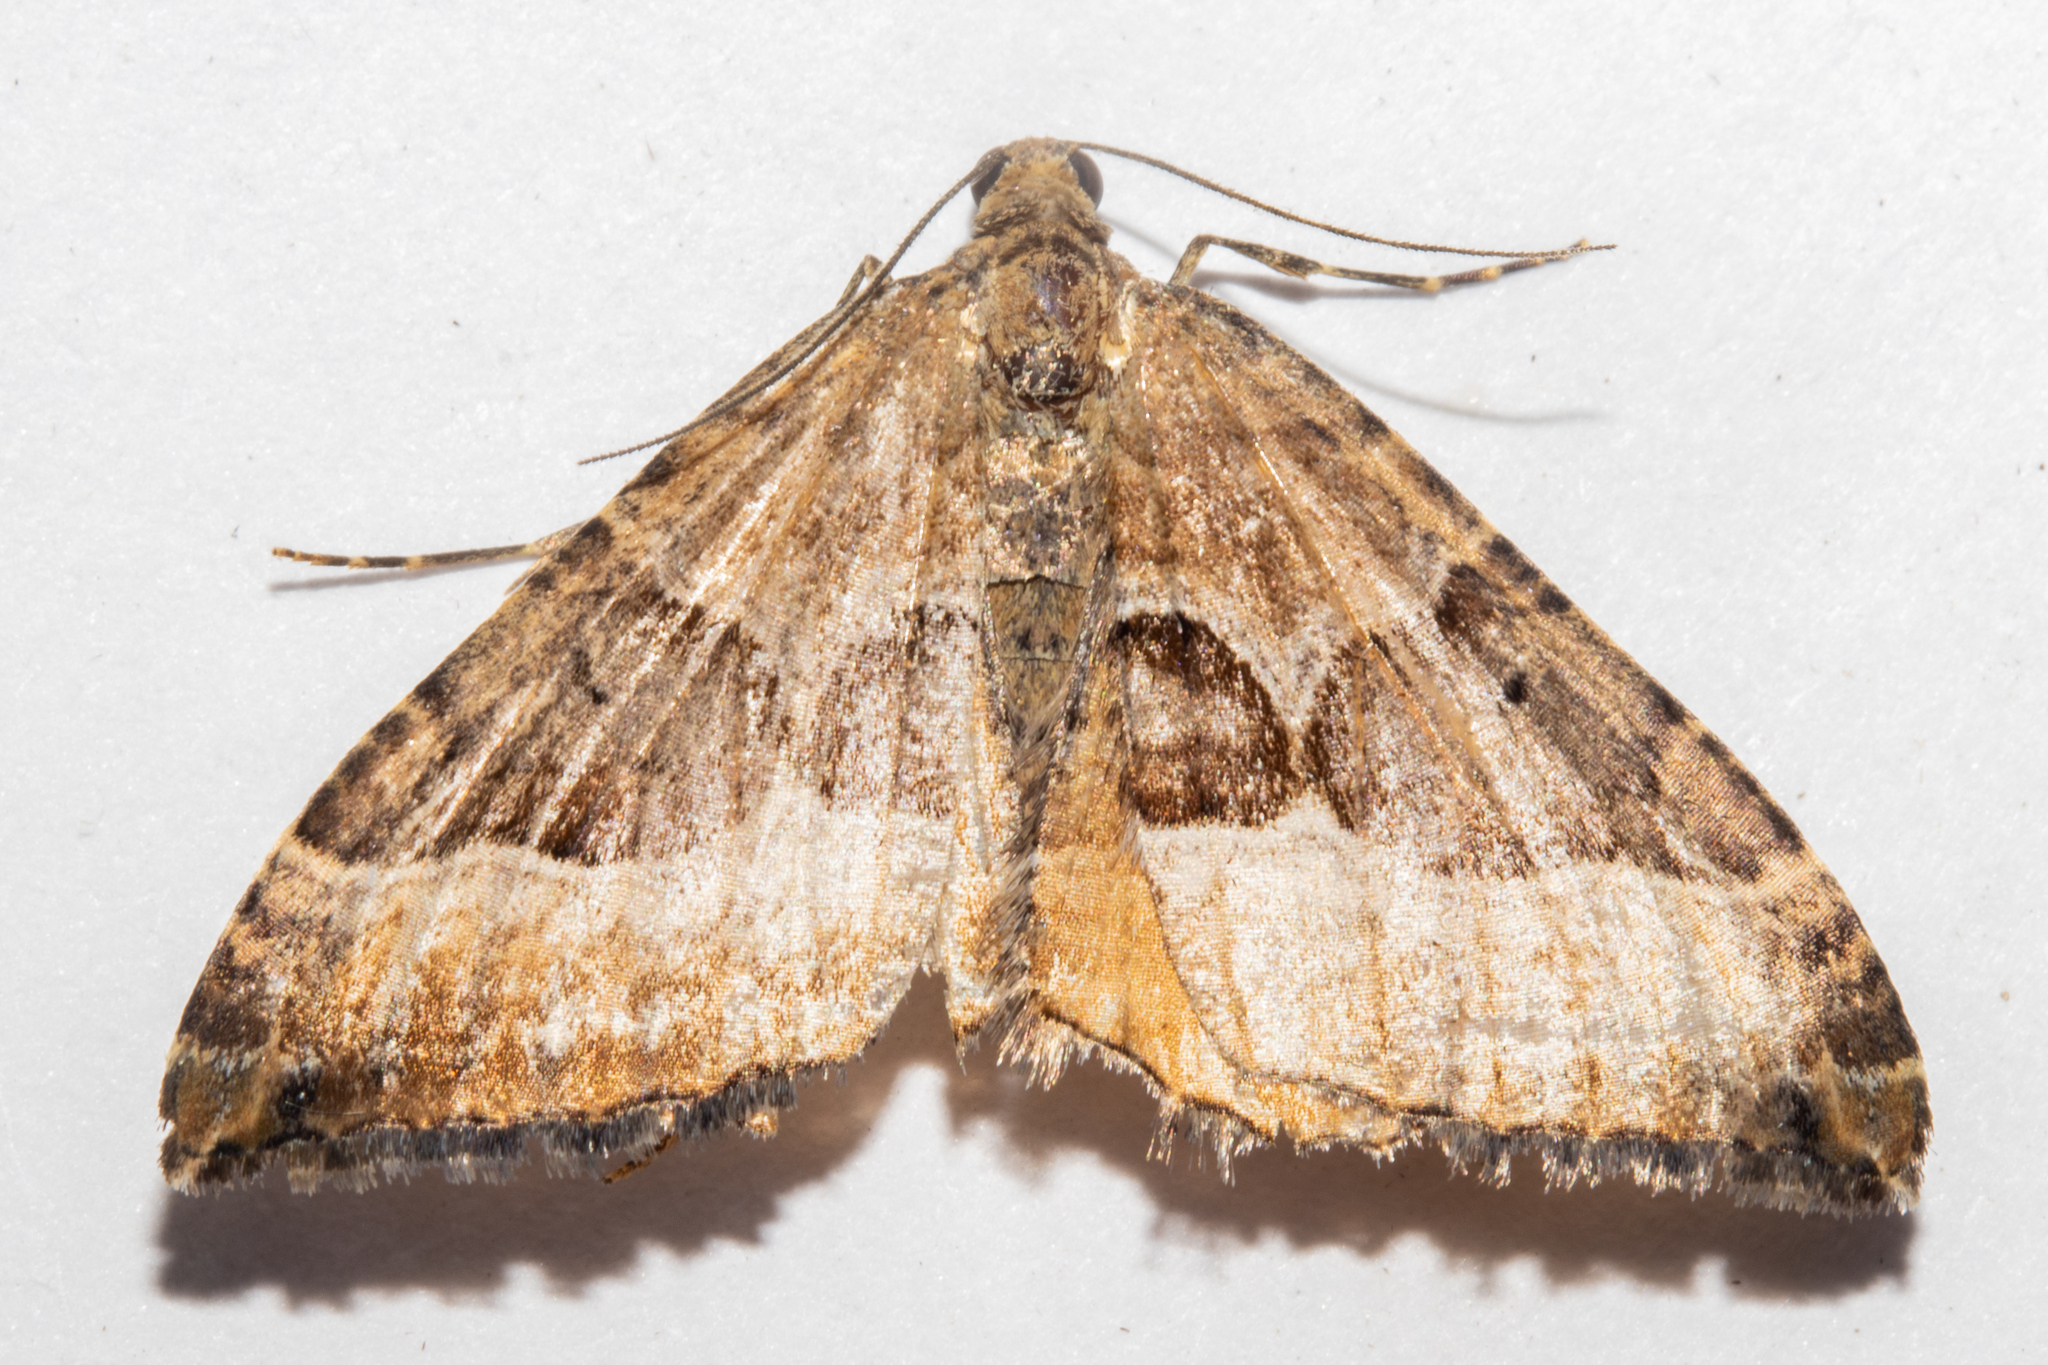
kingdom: Animalia
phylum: Arthropoda
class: Insecta
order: Lepidoptera
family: Geometridae
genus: Hydriomena
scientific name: Hydriomena deltoidata
